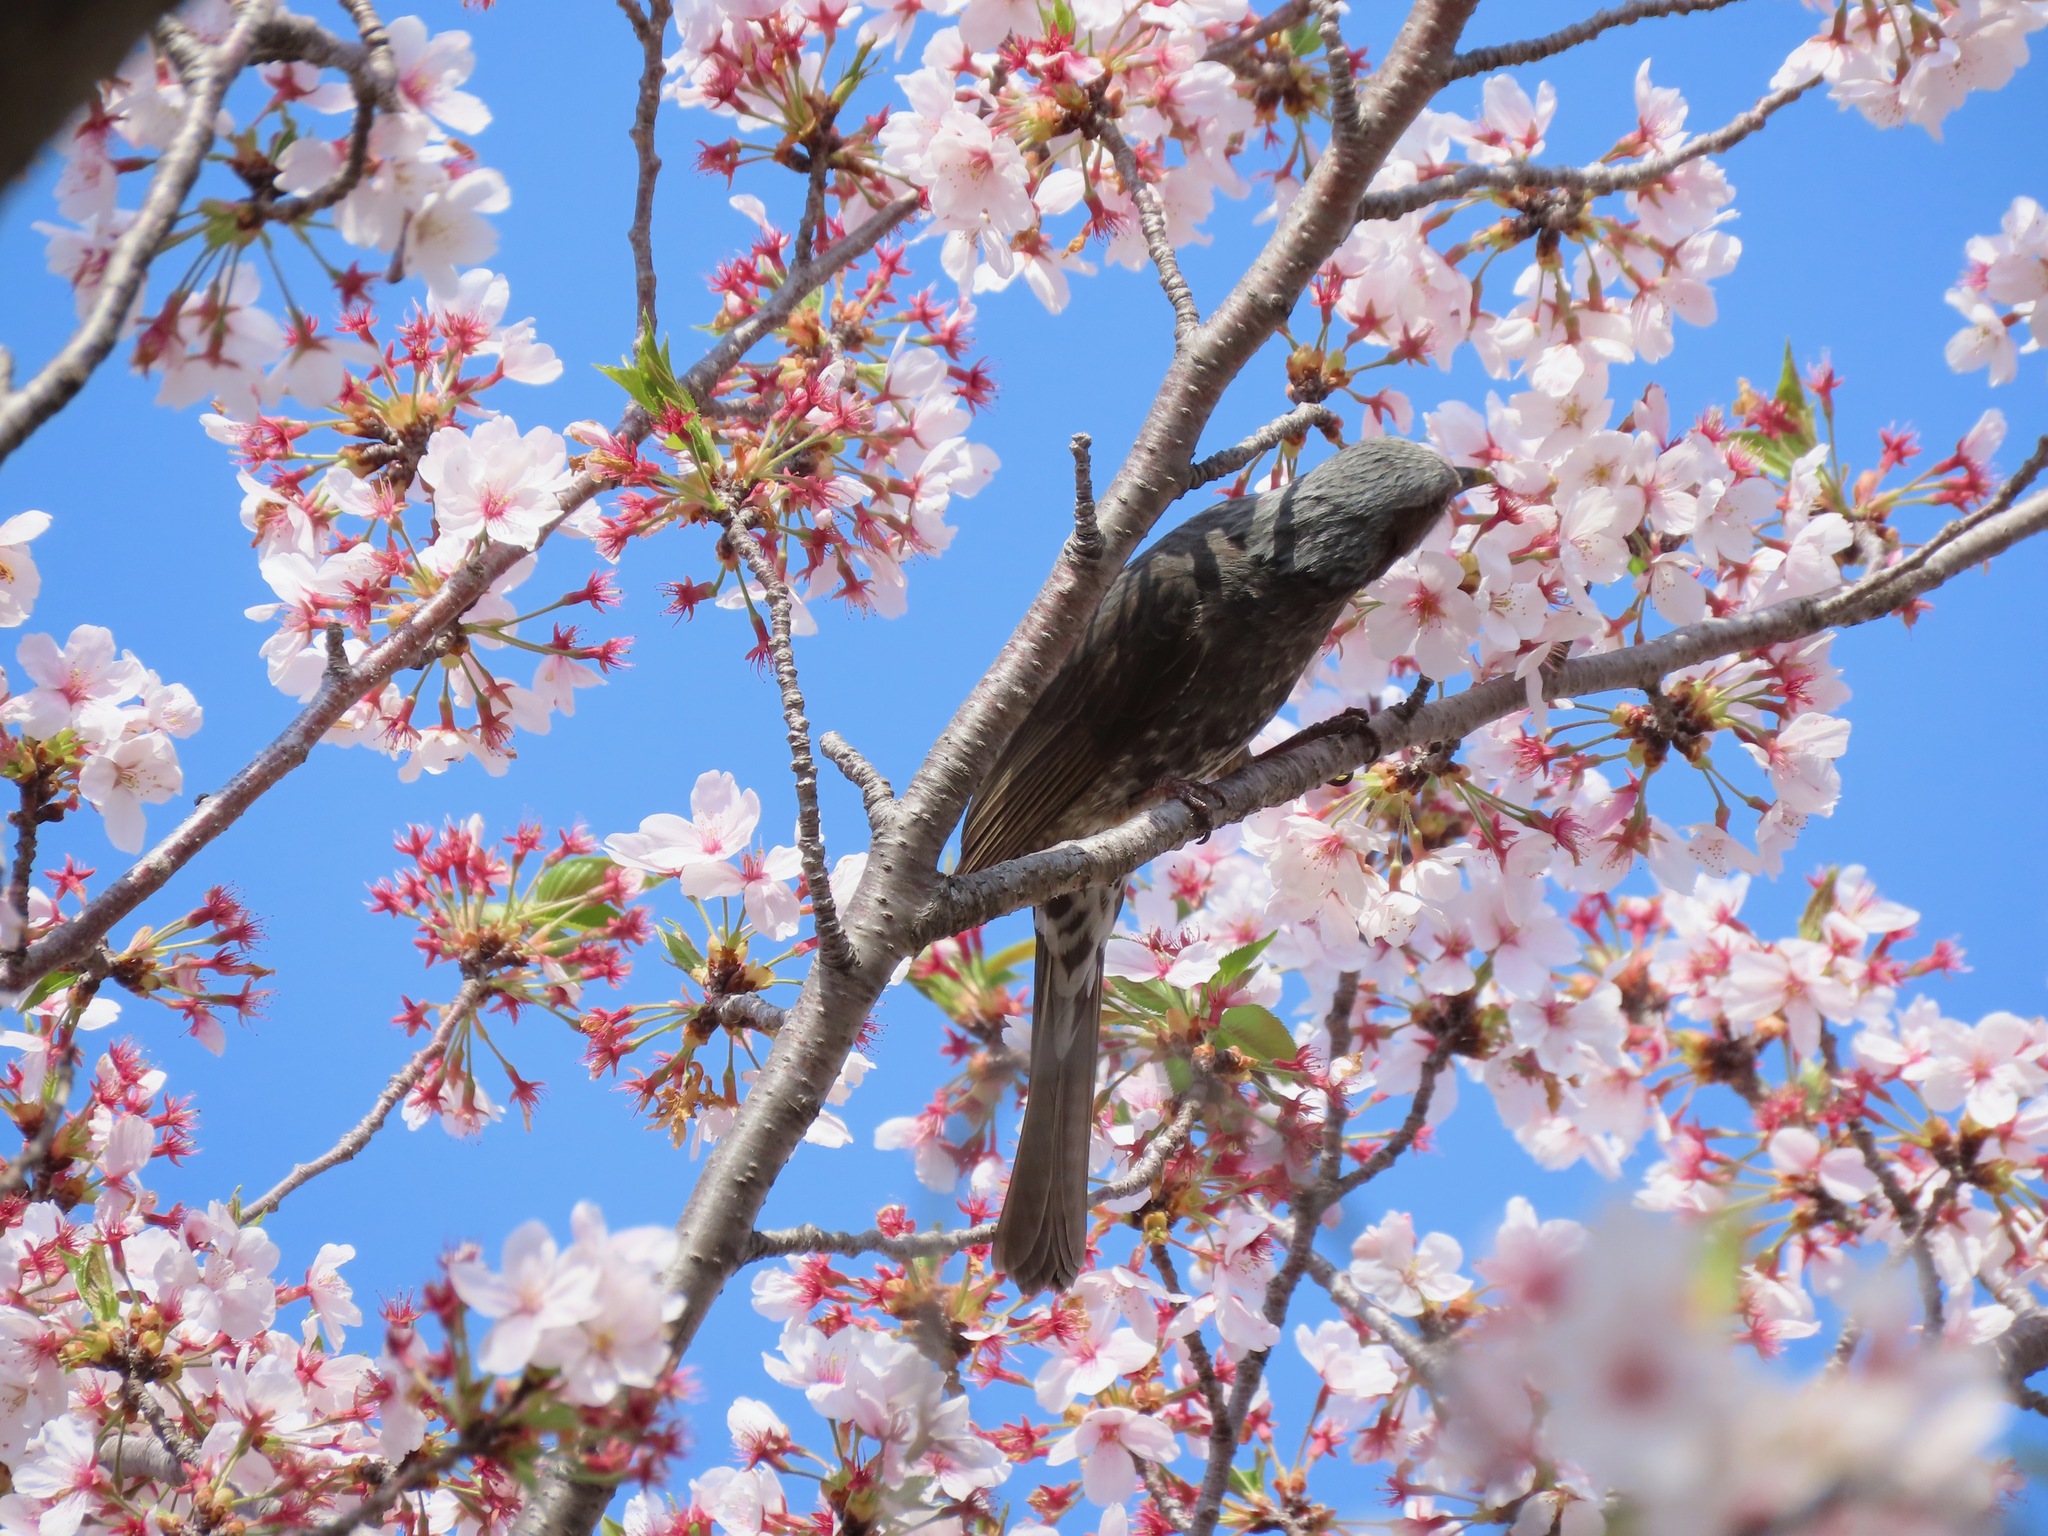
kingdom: Animalia
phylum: Chordata
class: Aves
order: Passeriformes
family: Pycnonotidae
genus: Hypsipetes
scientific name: Hypsipetes amaurotis
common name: Brown-eared bulbul
